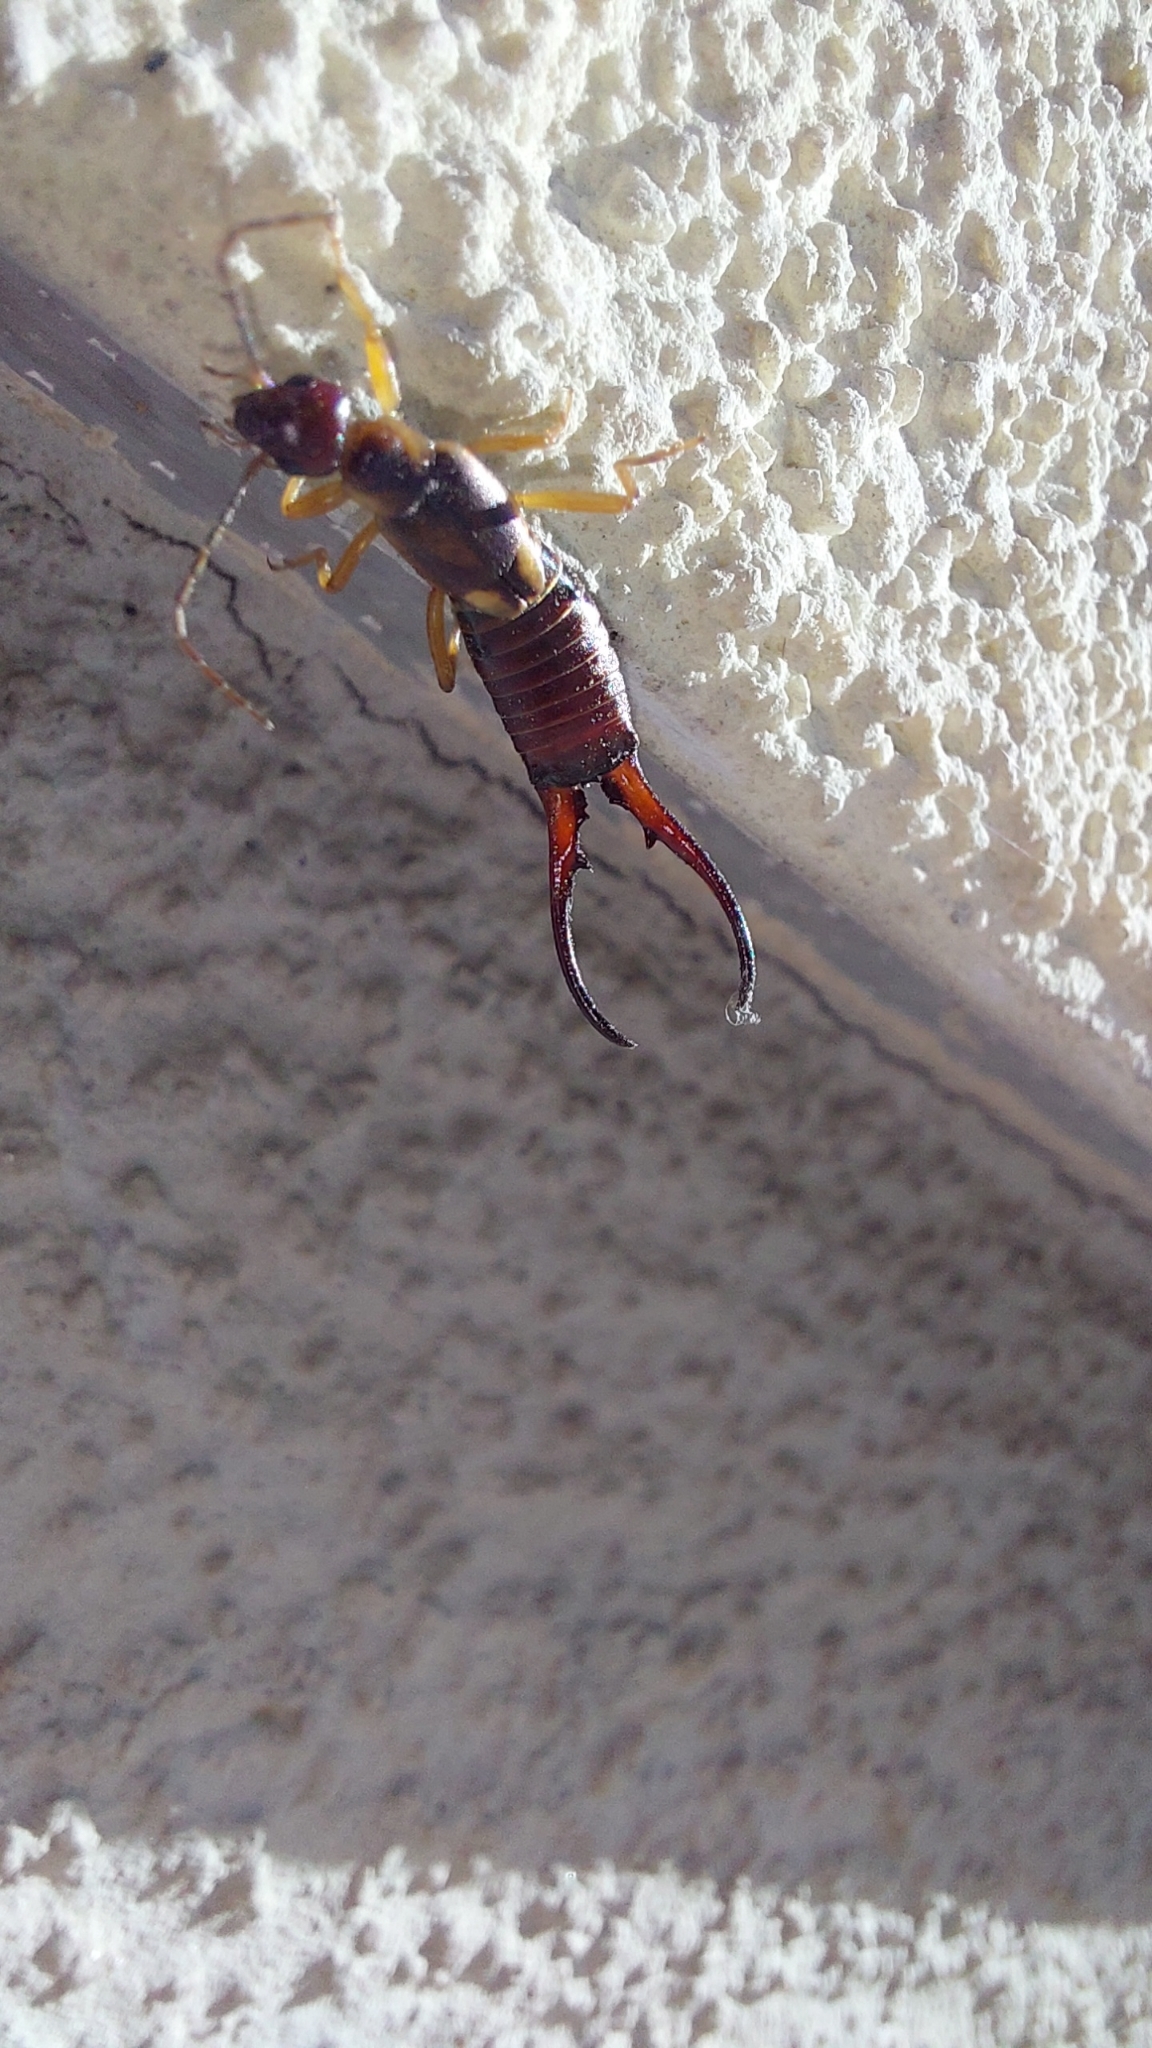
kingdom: Animalia
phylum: Arthropoda
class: Insecta
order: Dermaptera
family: Forficulidae
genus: Forficula
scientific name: Forficula
